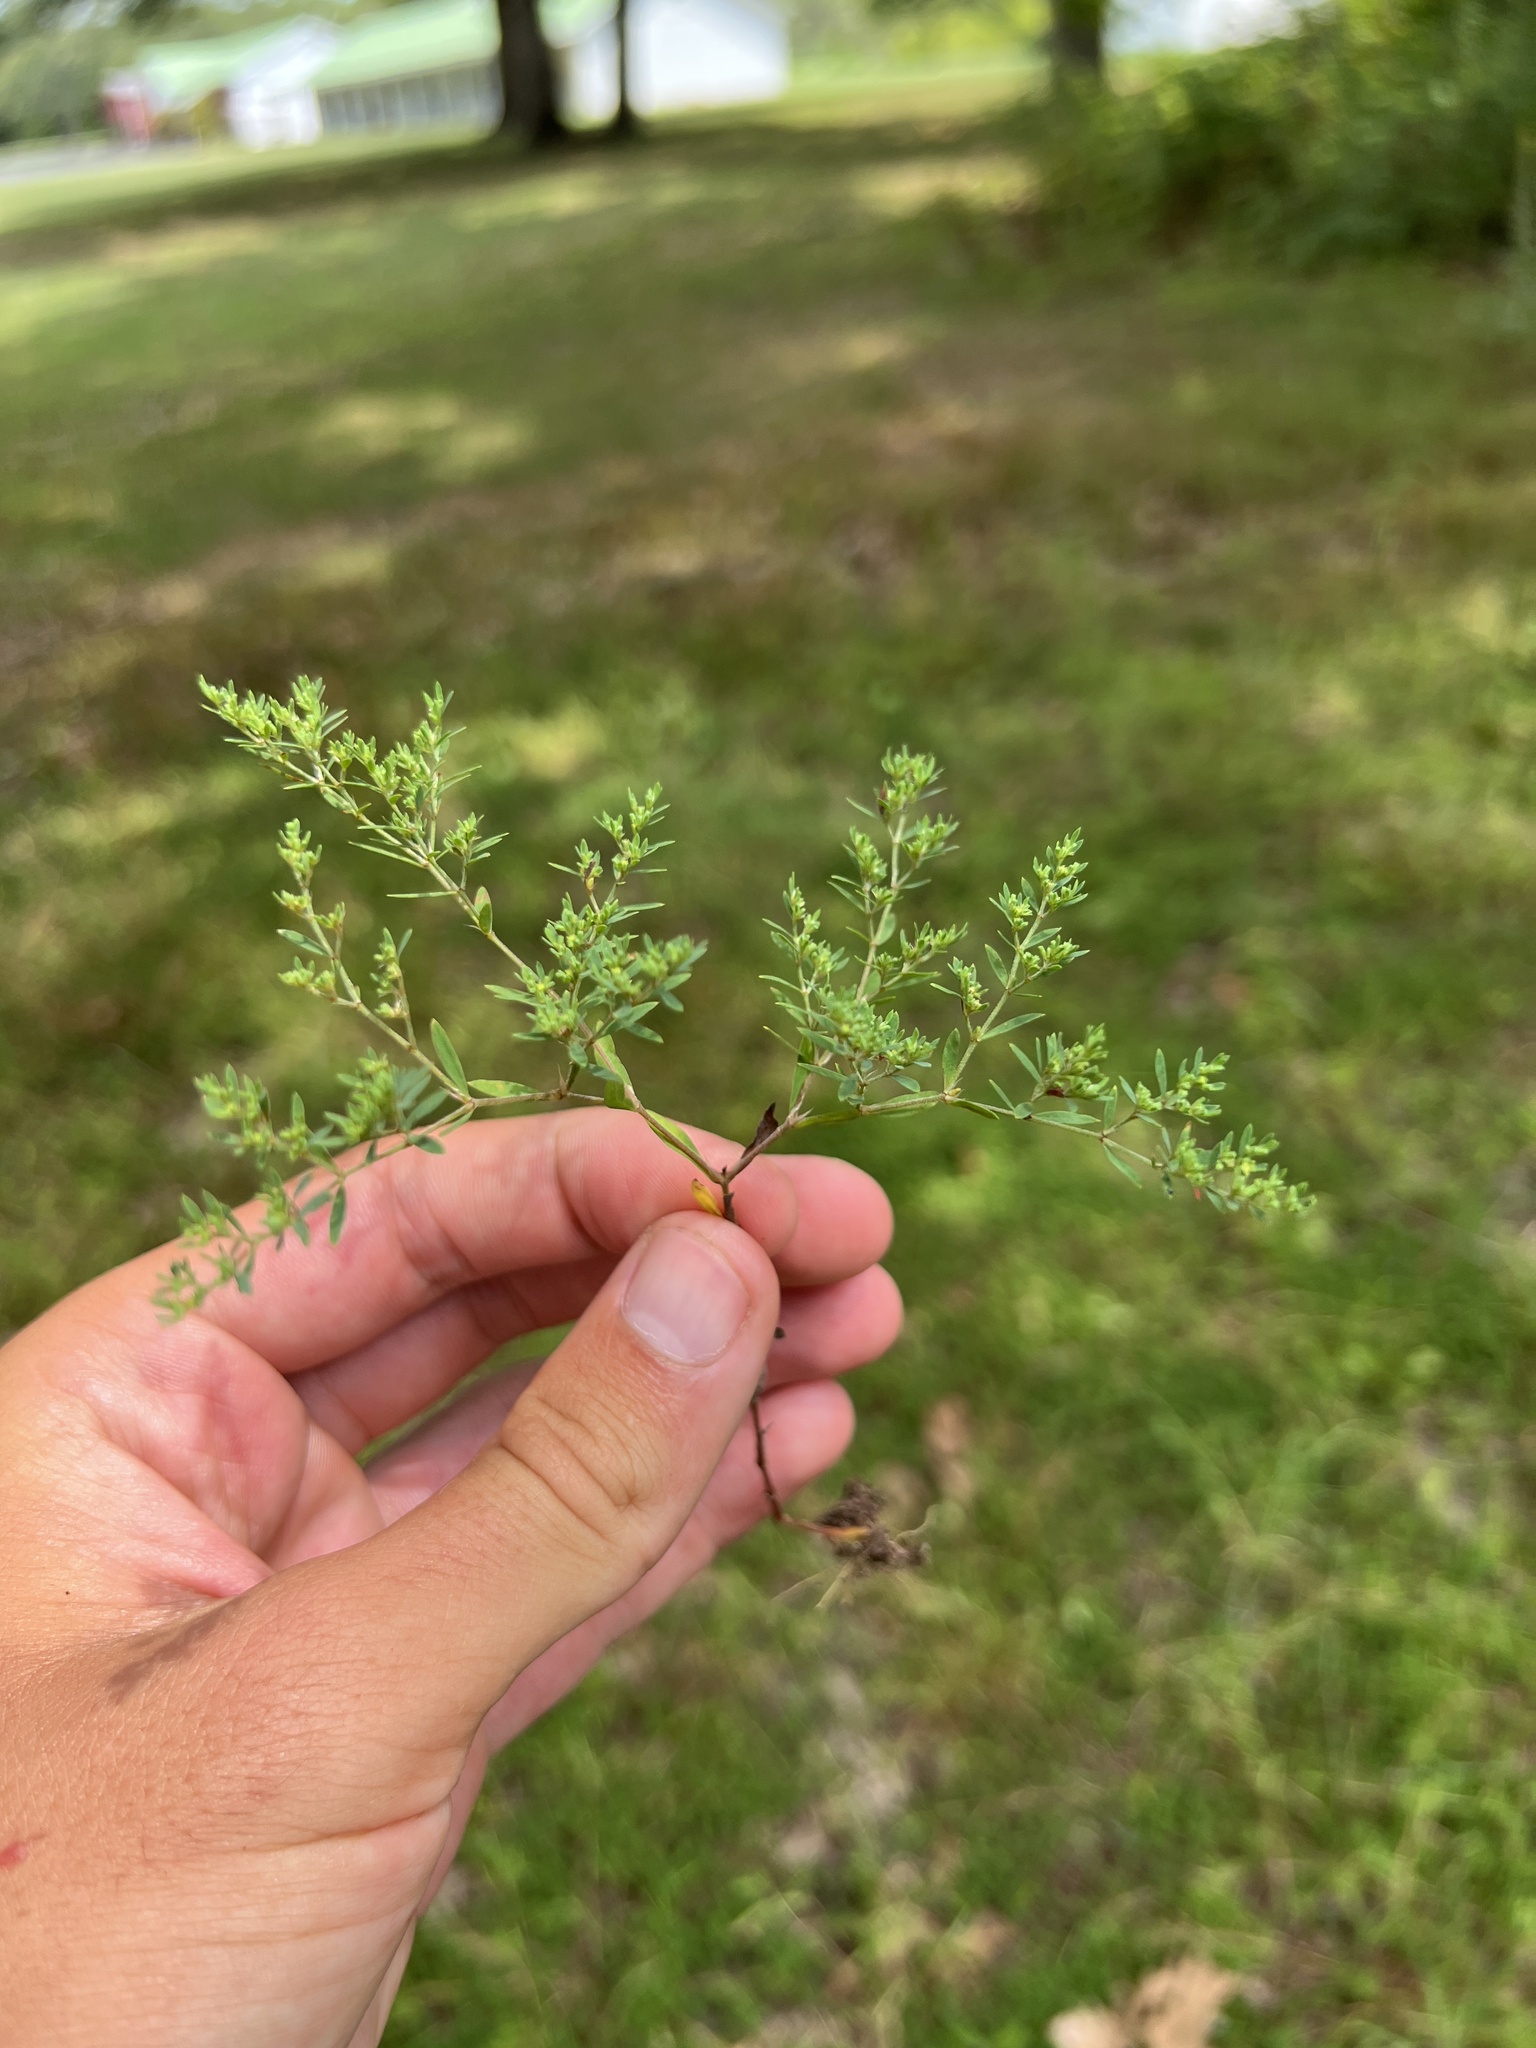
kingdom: Plantae
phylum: Tracheophyta
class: Magnoliopsida
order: Caryophyllales
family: Caryophyllaceae
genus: Paronychia
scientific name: Paronychia fastigiata
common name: Branching forked whitlow-wort
